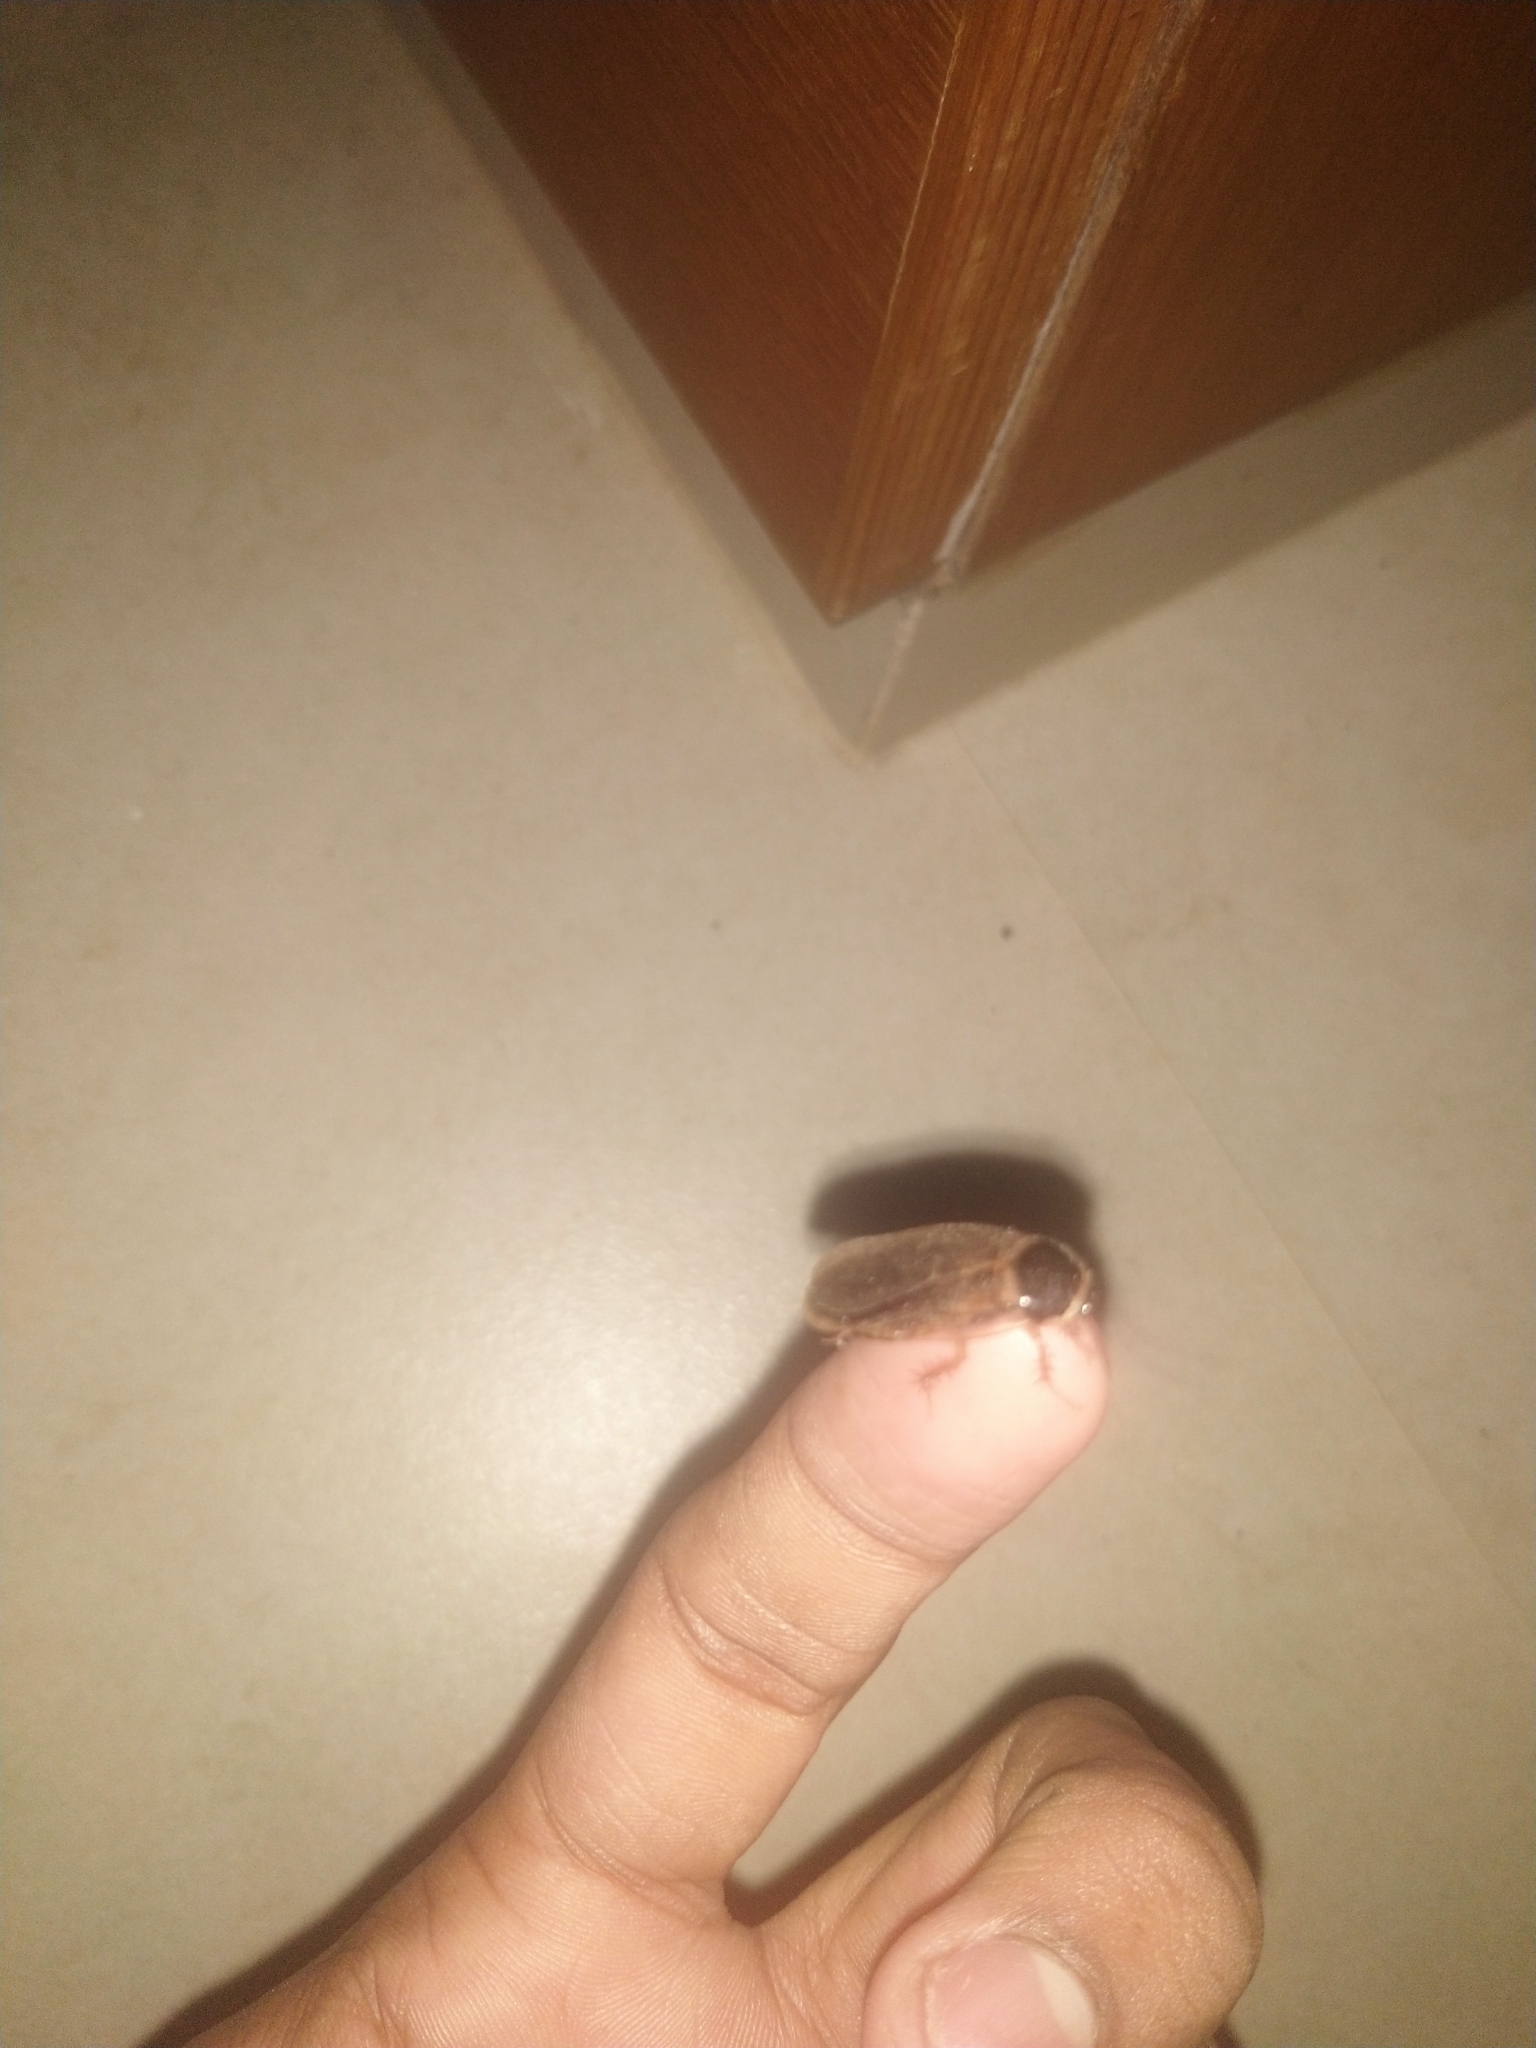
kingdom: Animalia
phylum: Arthropoda
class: Insecta
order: Blattodea
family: Blaberidae
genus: Pycnoscelus
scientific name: Pycnoscelus indicus
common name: Burrowing cockroach
